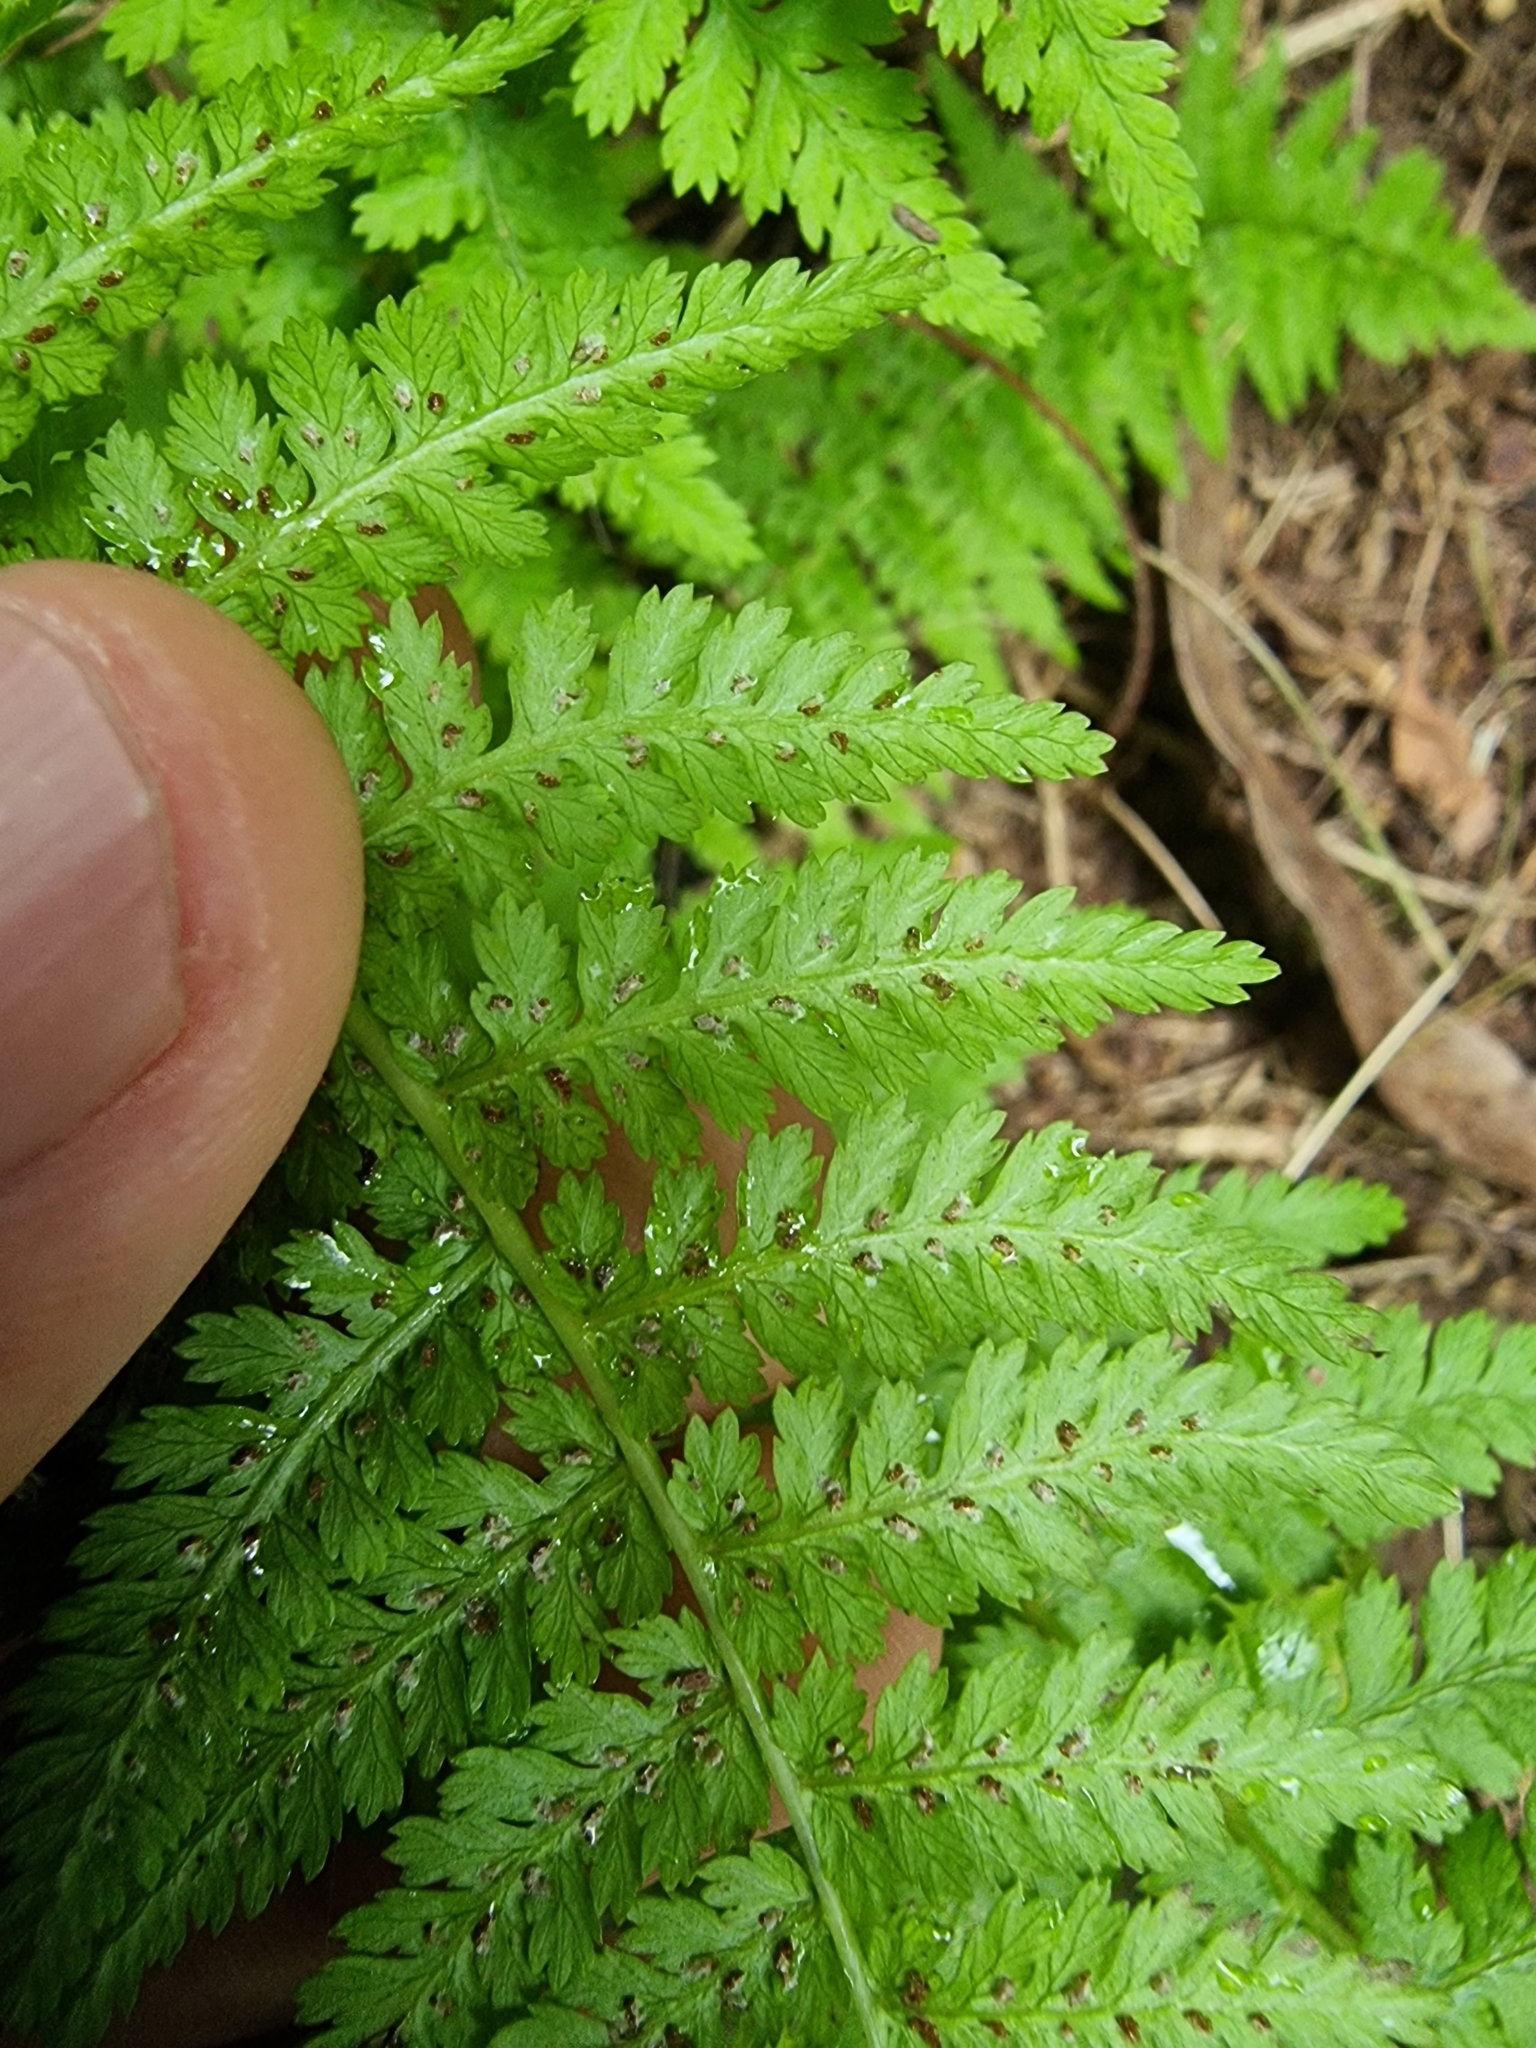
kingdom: Plantae
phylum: Tracheophyta
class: Polypodiopsida
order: Polypodiales
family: Athyriaceae
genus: Athyrium
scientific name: Athyrium filix-femina
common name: Lady fern
